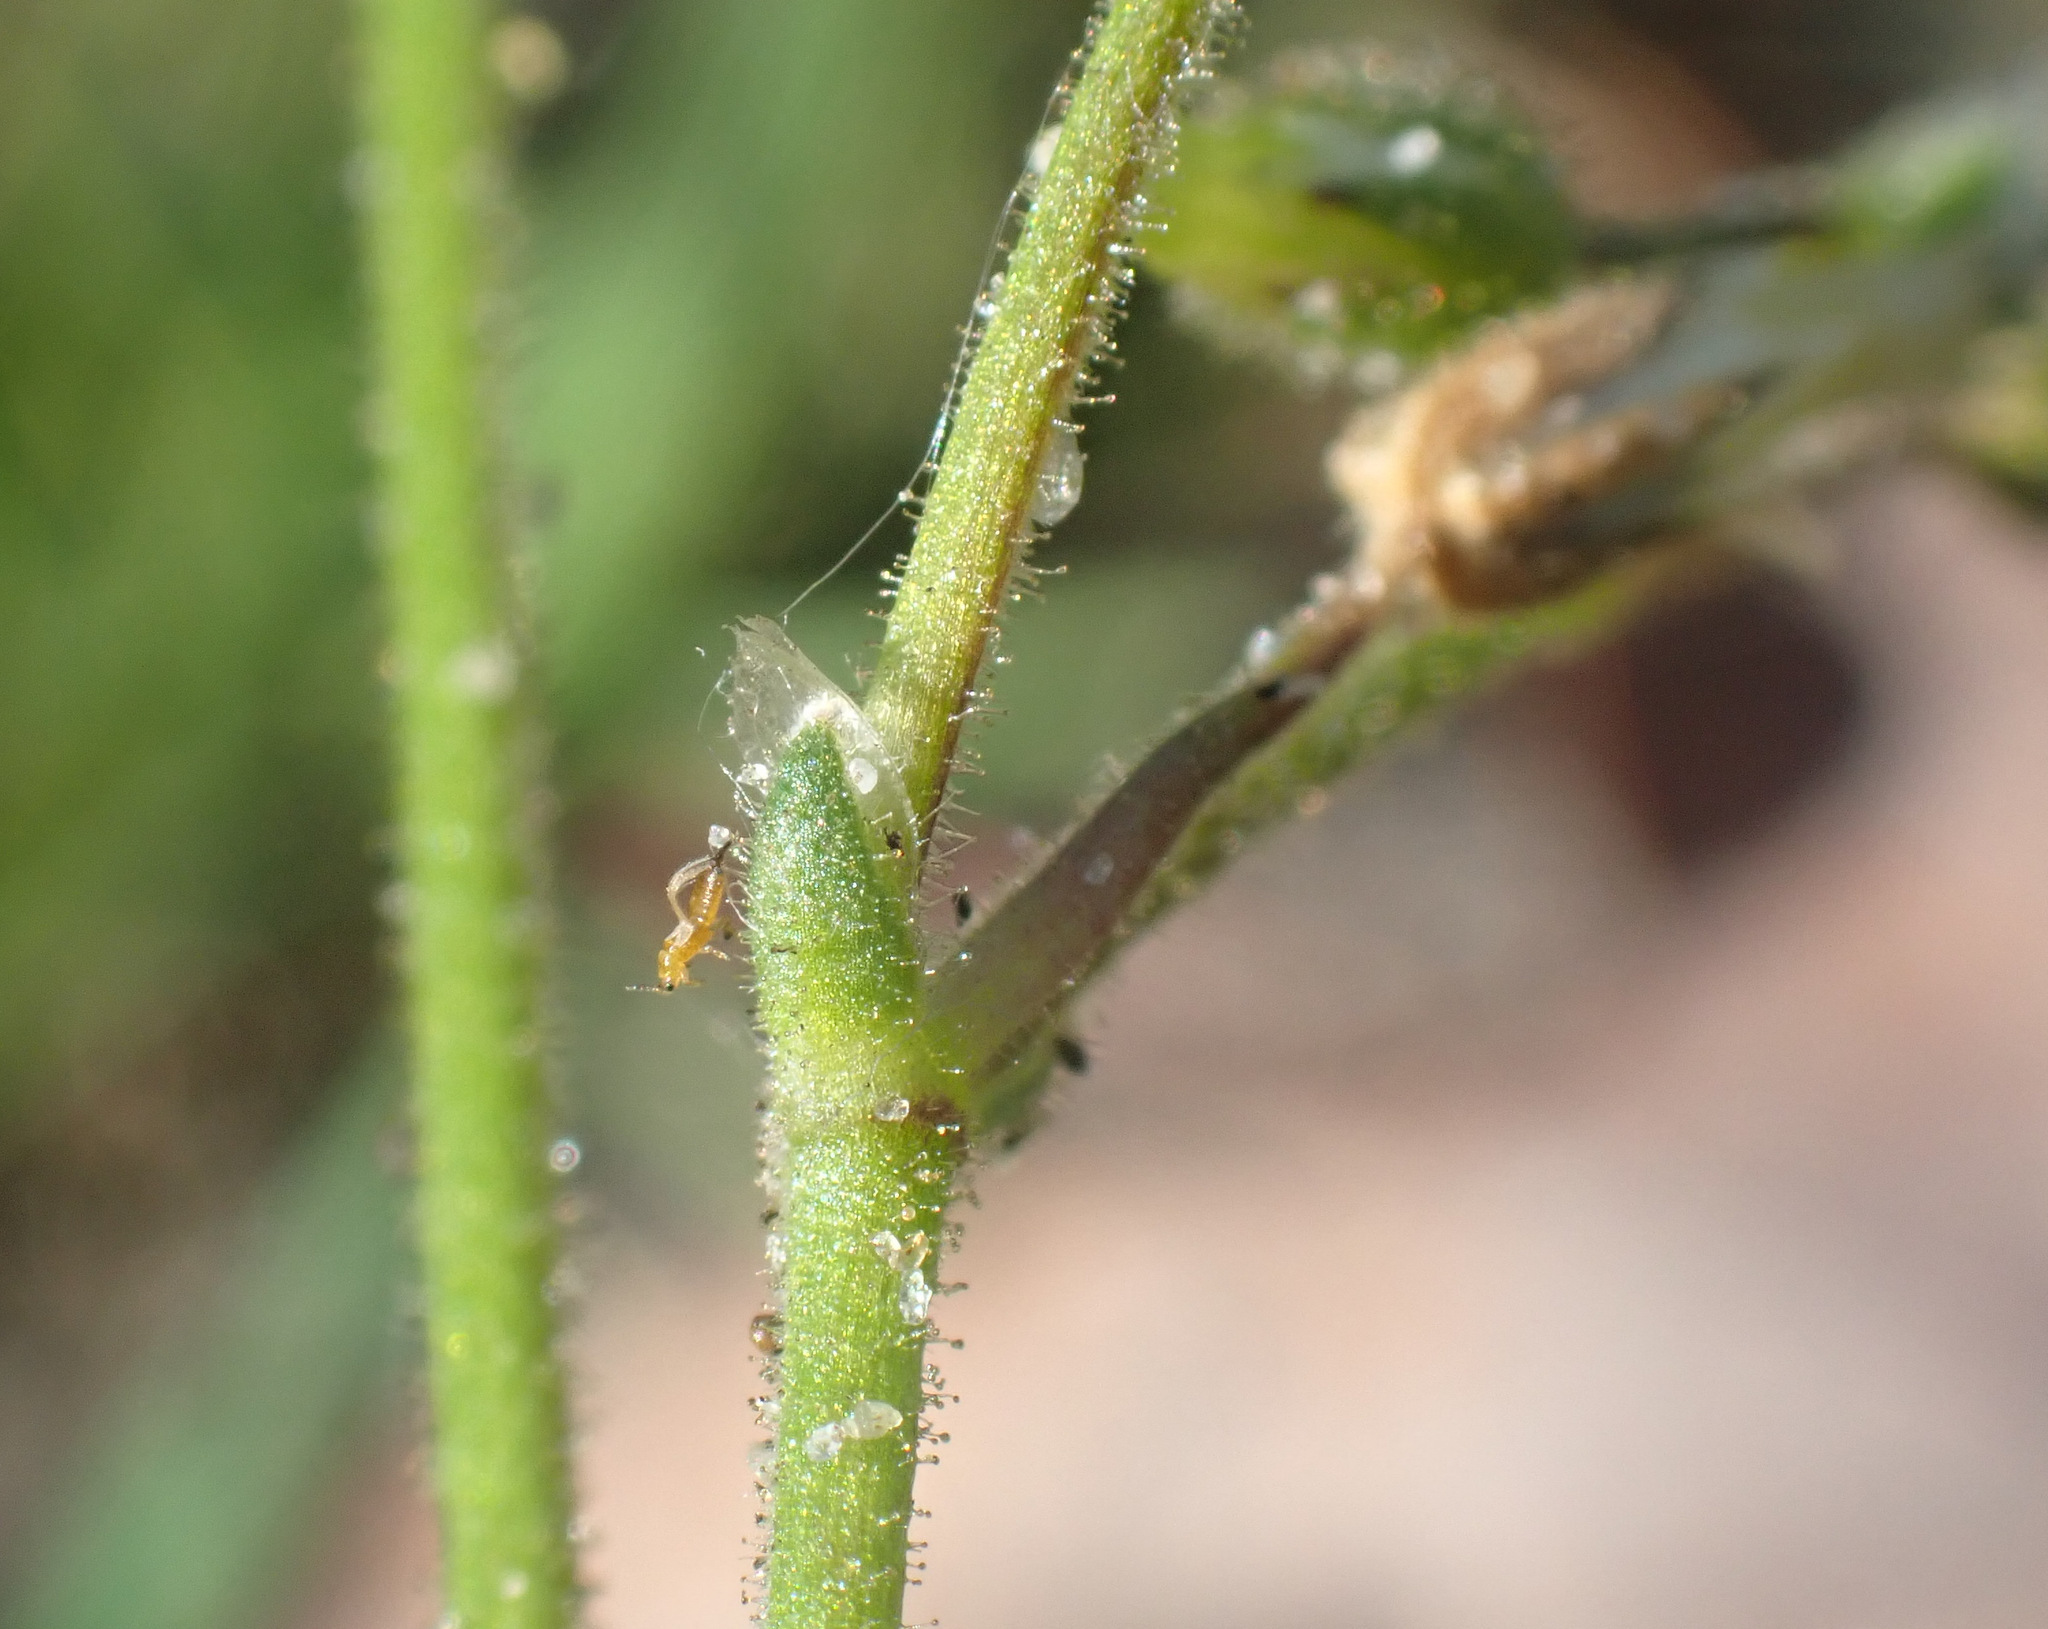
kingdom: Plantae
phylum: Tracheophyta
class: Magnoliopsida
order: Caryophyllales
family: Caryophyllaceae
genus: Cerastium
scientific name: Cerastium semidecandrum
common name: Little mouse-ear
